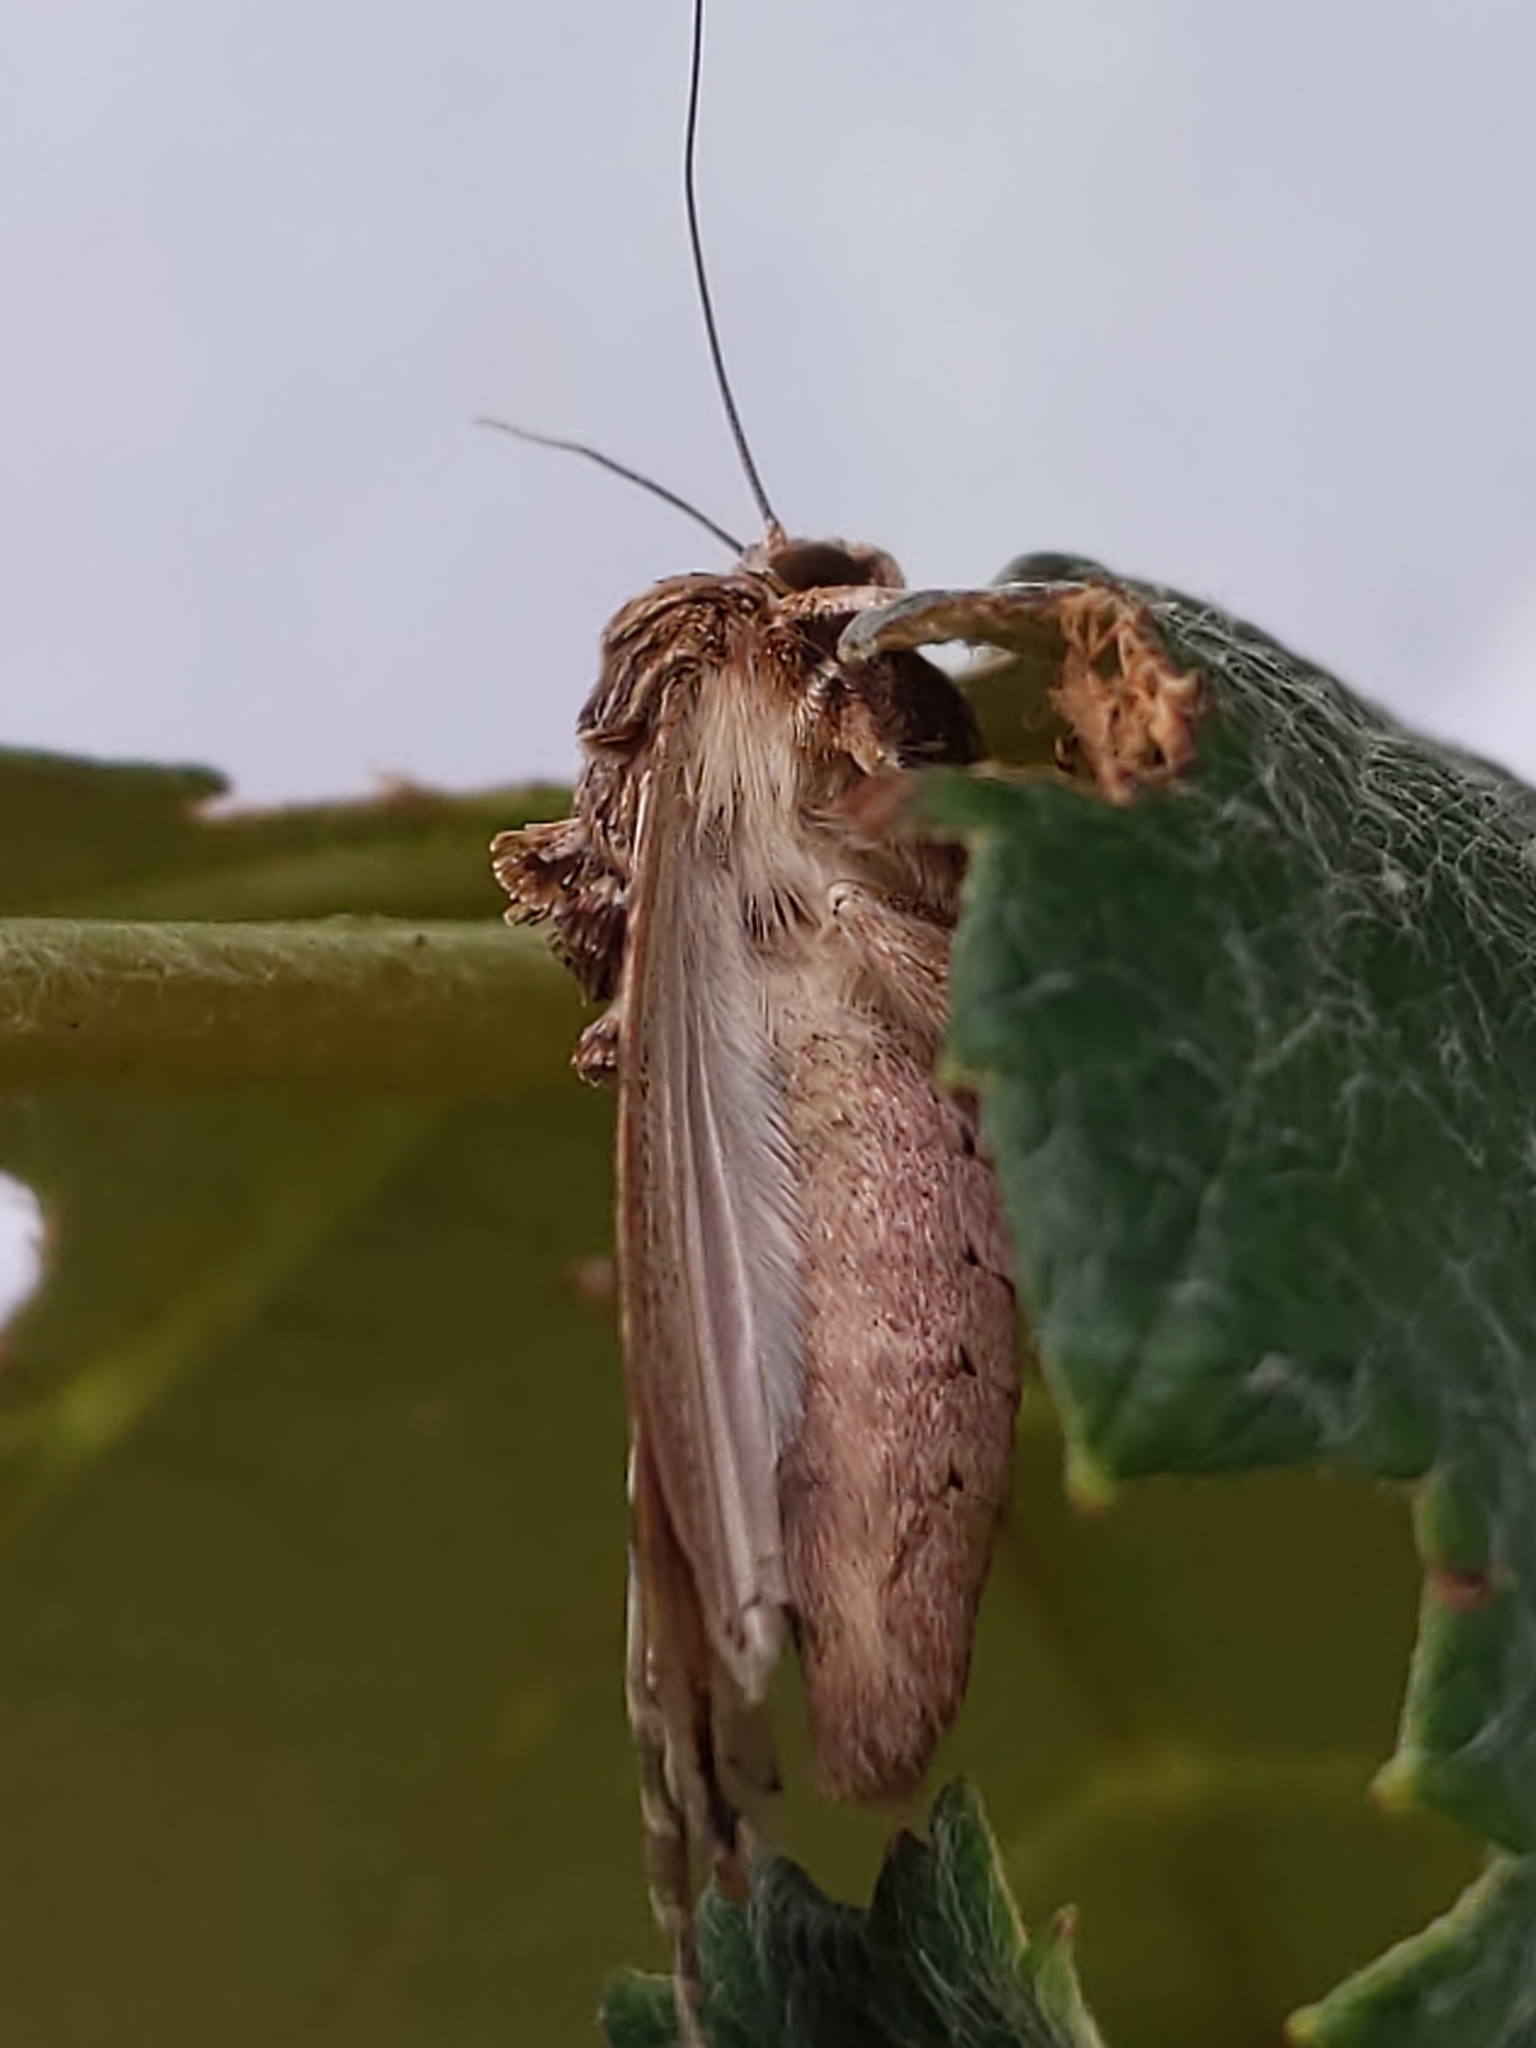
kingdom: Animalia
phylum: Arthropoda
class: Insecta
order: Lepidoptera
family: Noctuidae
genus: Spodoptera
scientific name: Spodoptera ornithogalli
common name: Yellow-striped armyworm
